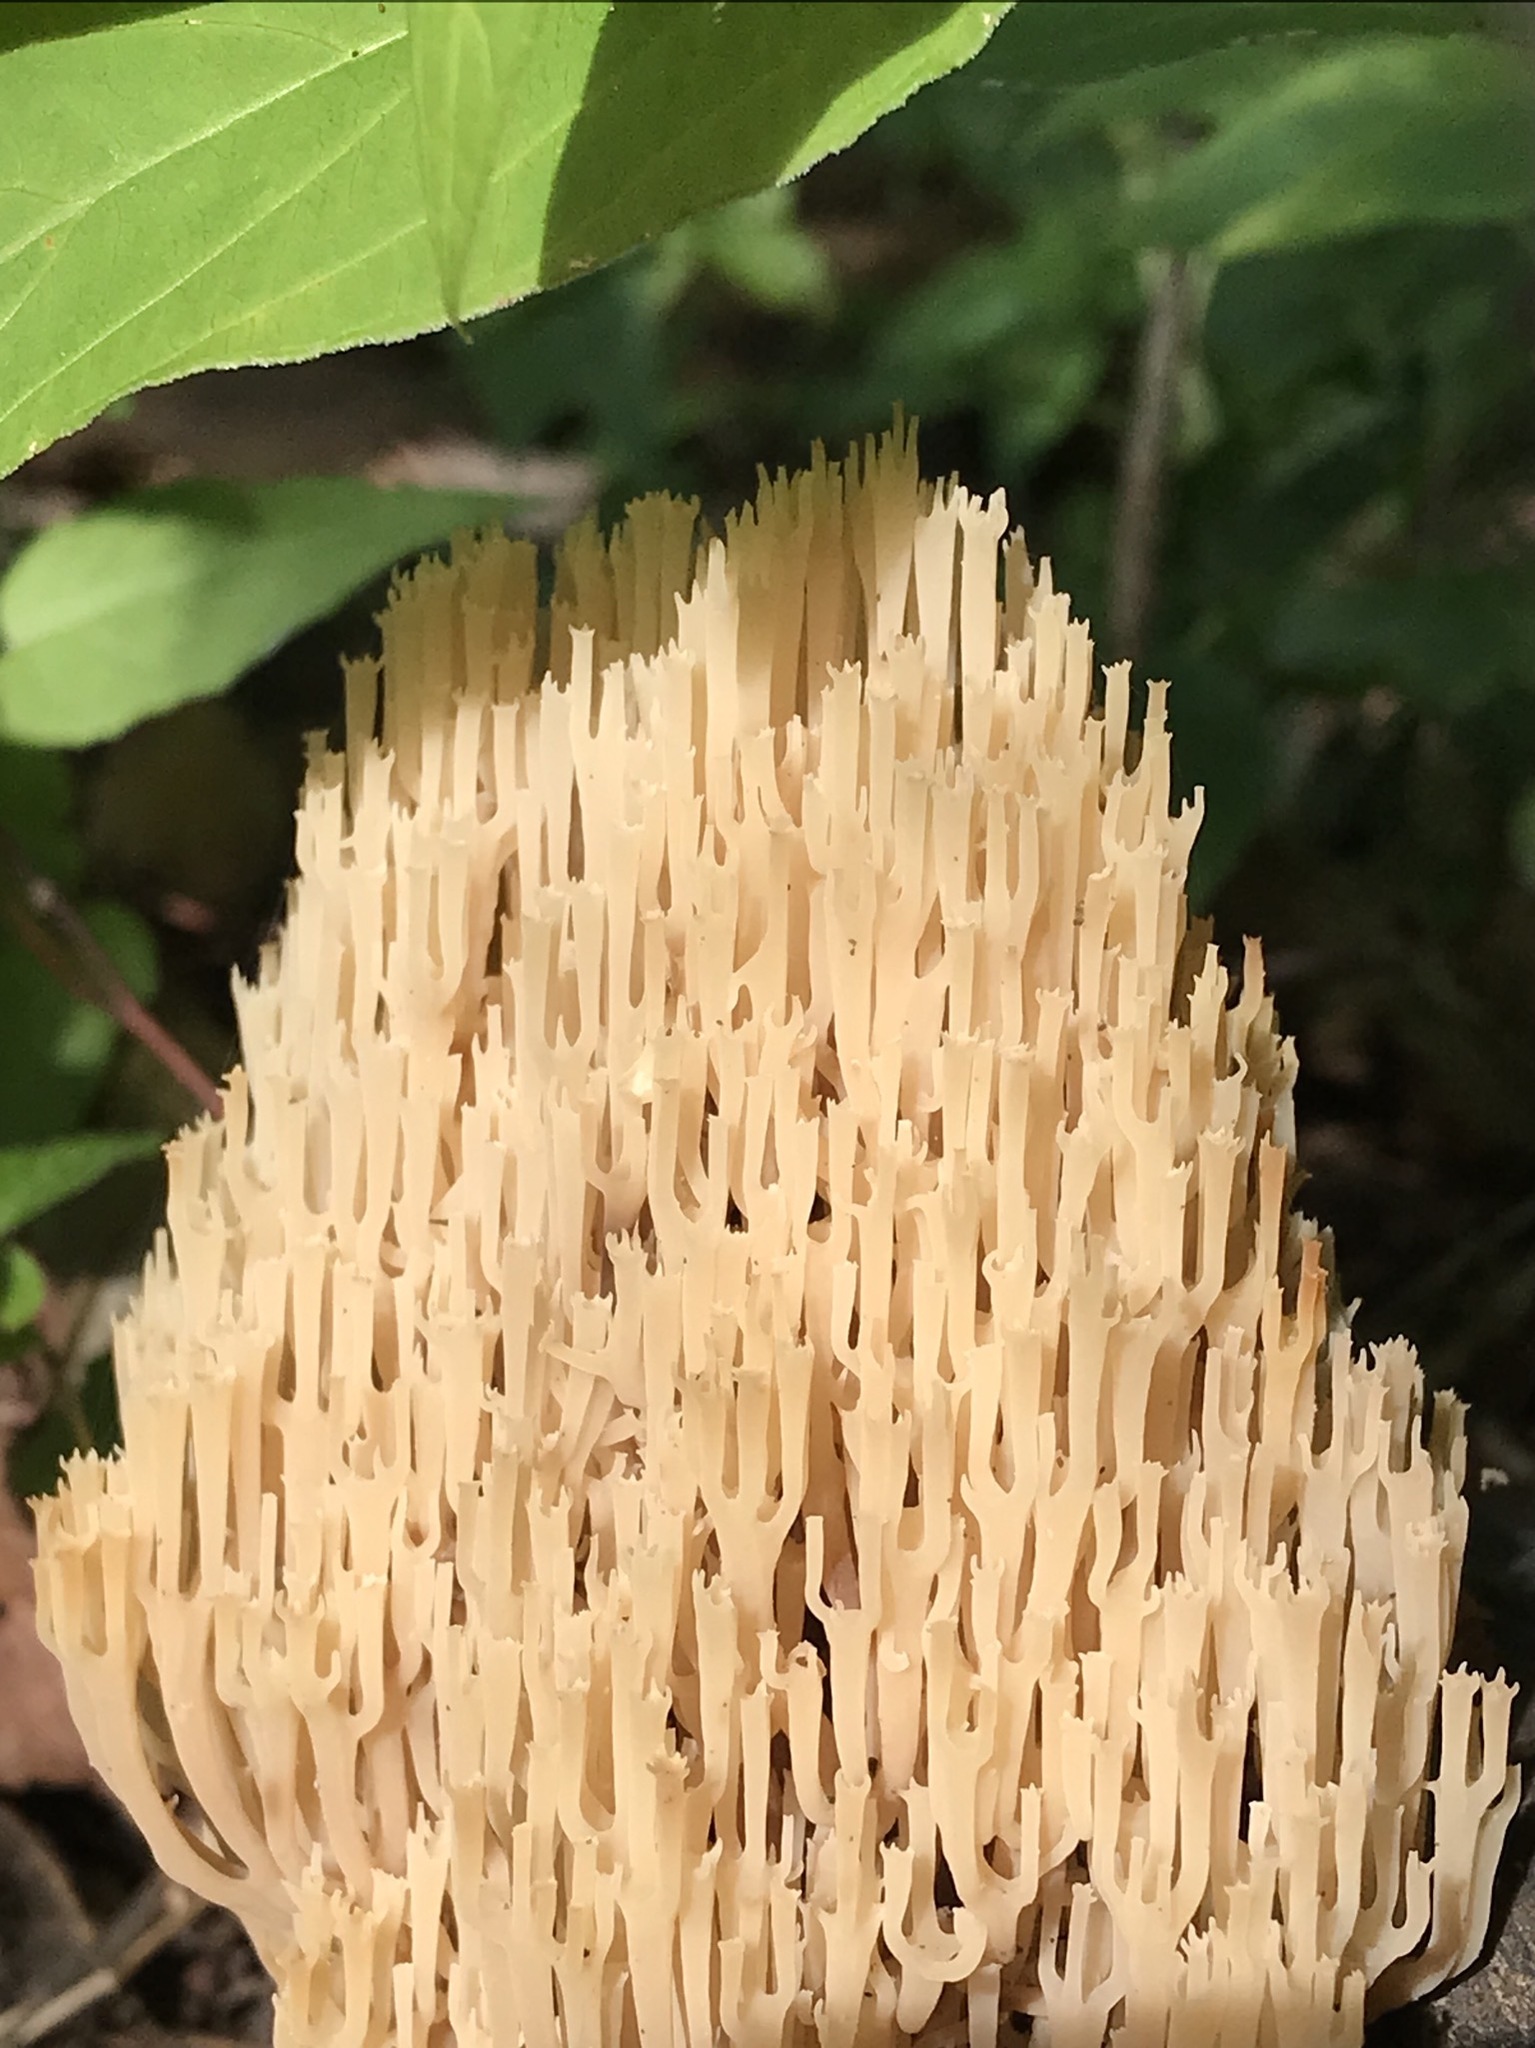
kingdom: Fungi
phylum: Basidiomycota
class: Agaricomycetes
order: Russulales
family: Auriscalpiaceae
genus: Artomyces
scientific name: Artomyces pyxidatus
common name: Crown-tipped coral fungus
